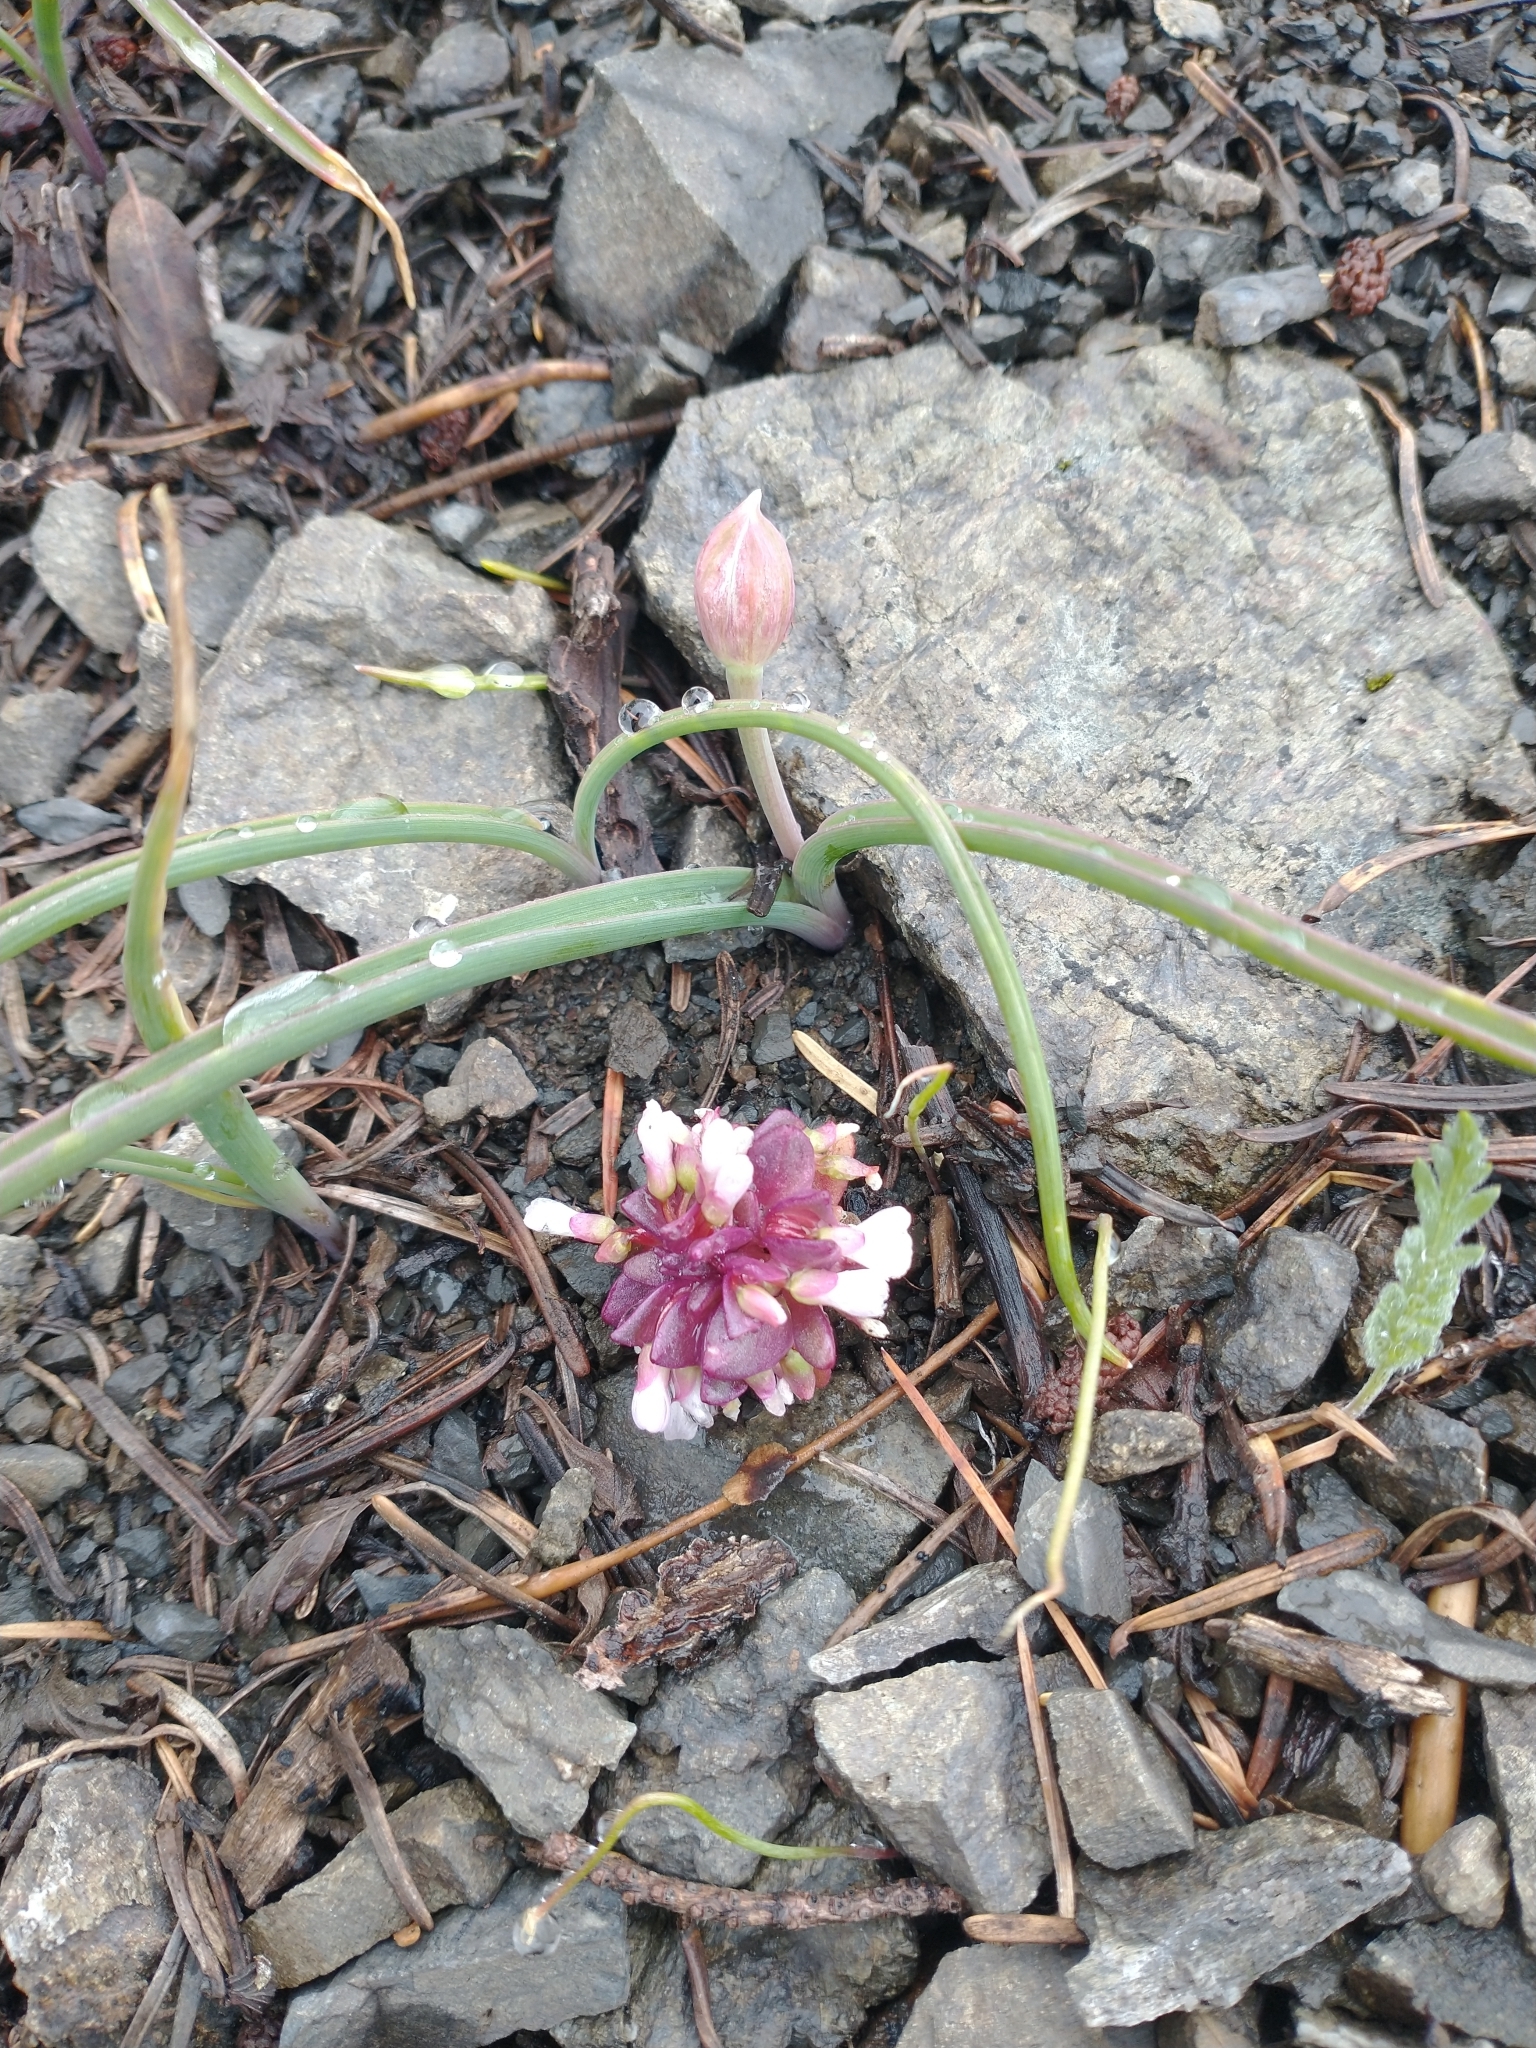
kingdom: Plantae
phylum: Tracheophyta
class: Magnoliopsida
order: Caryophyllales
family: Montiaceae
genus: Claytonia
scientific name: Claytonia saxosa
